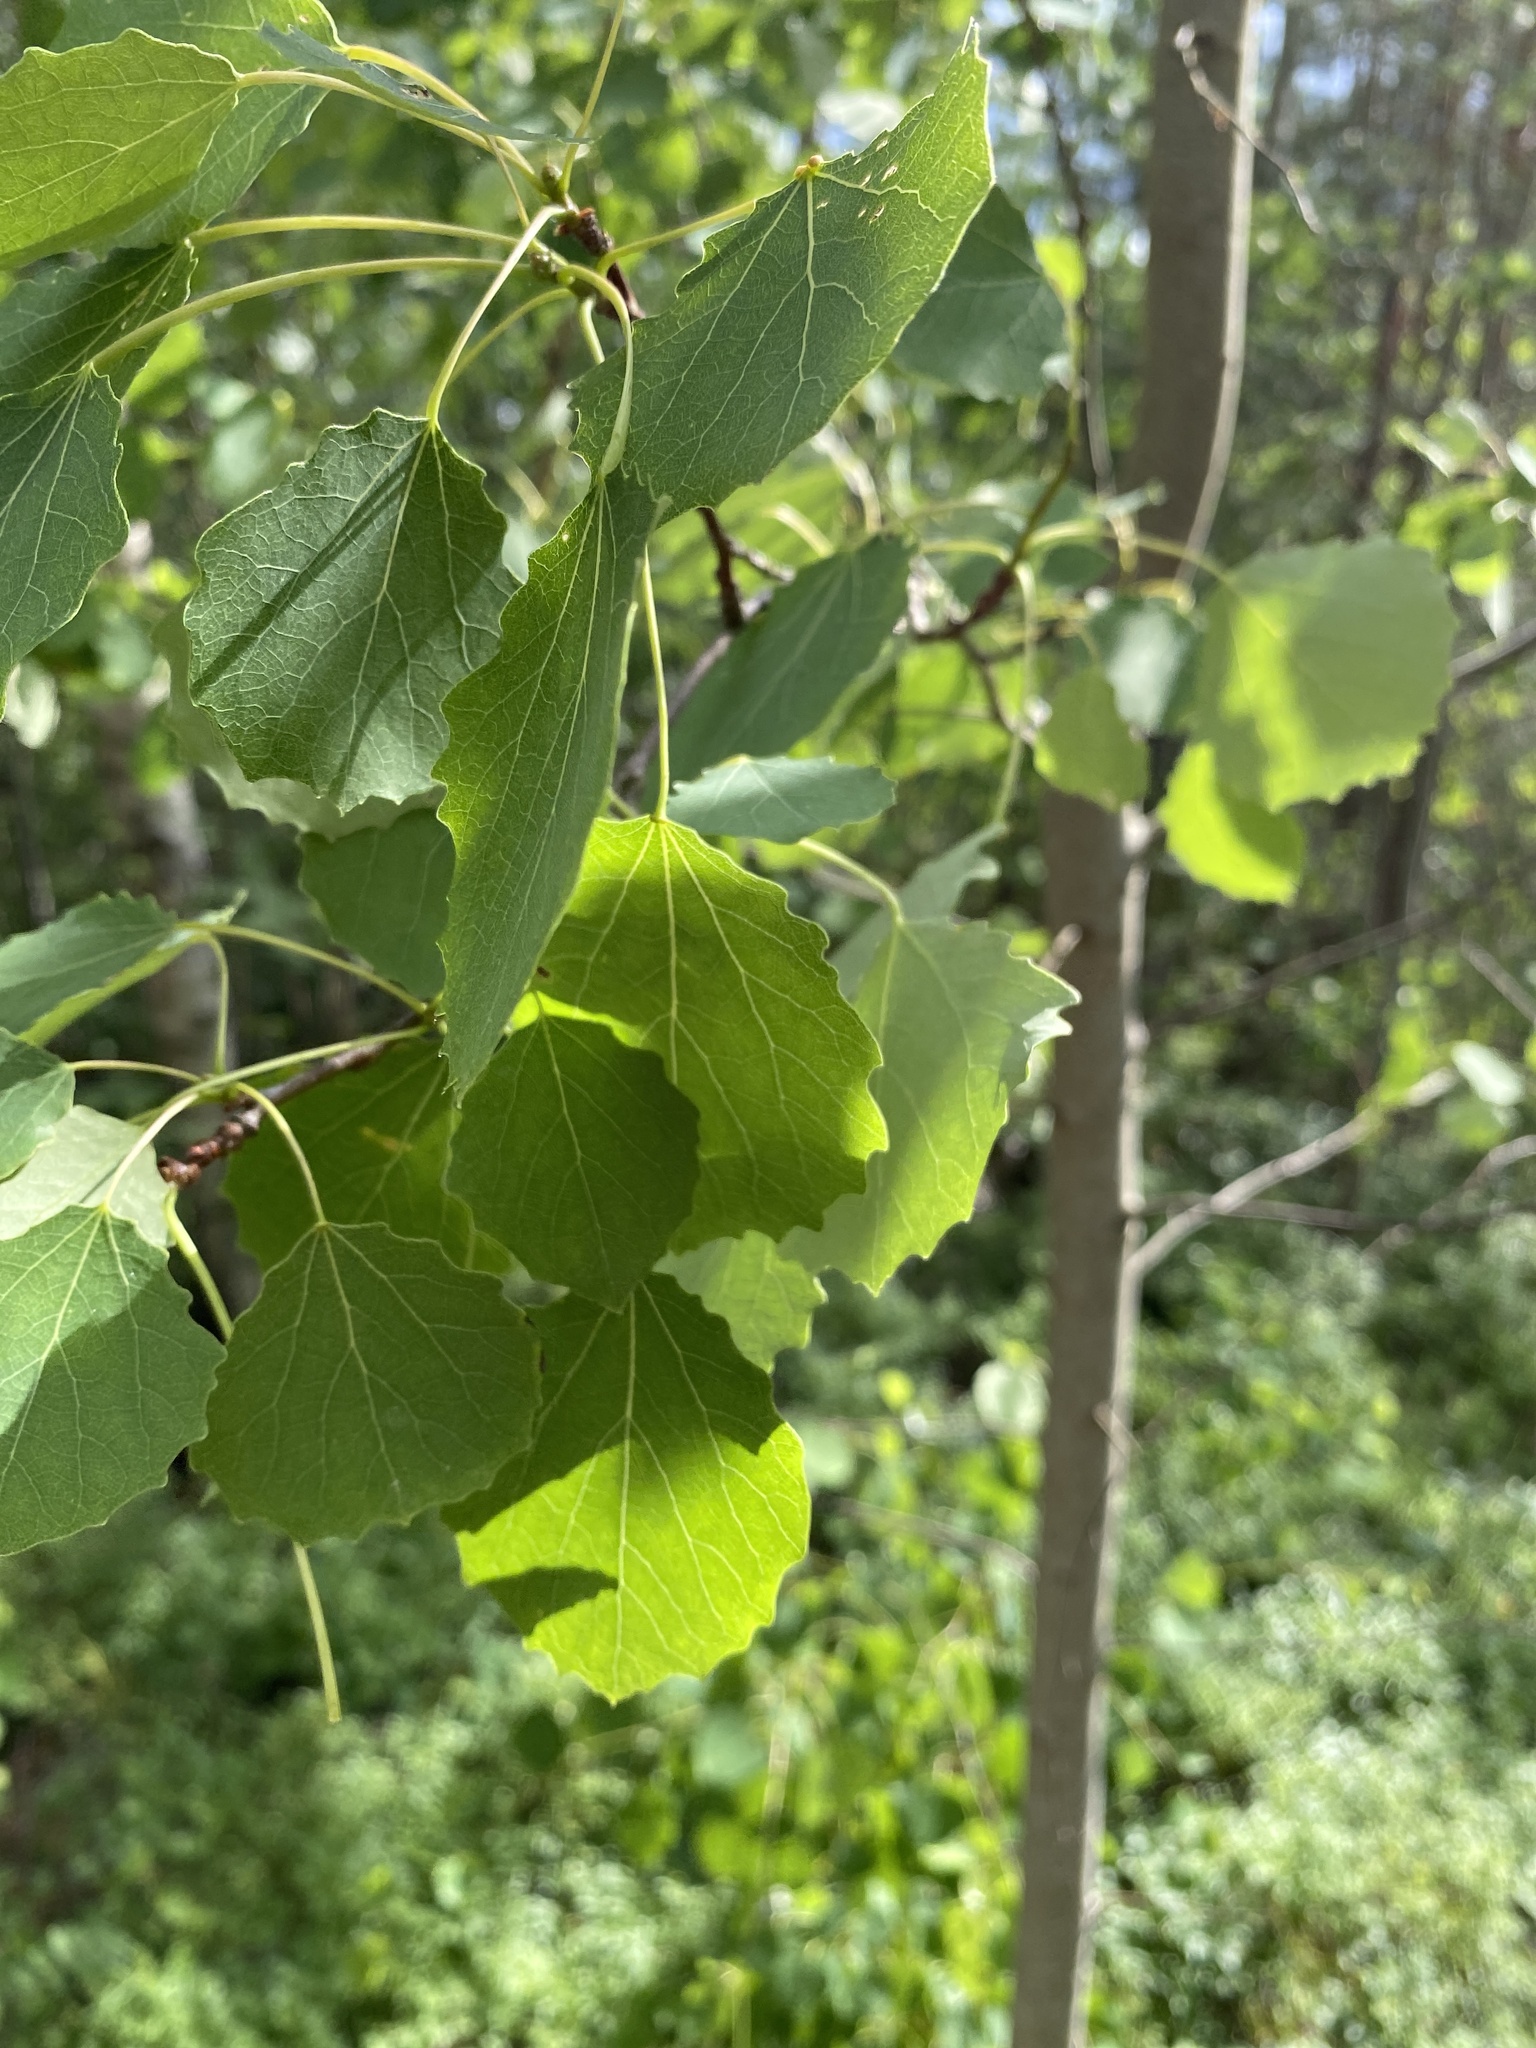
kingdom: Plantae
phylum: Tracheophyta
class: Magnoliopsida
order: Malpighiales
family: Salicaceae
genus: Populus
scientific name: Populus tremula
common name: European aspen
